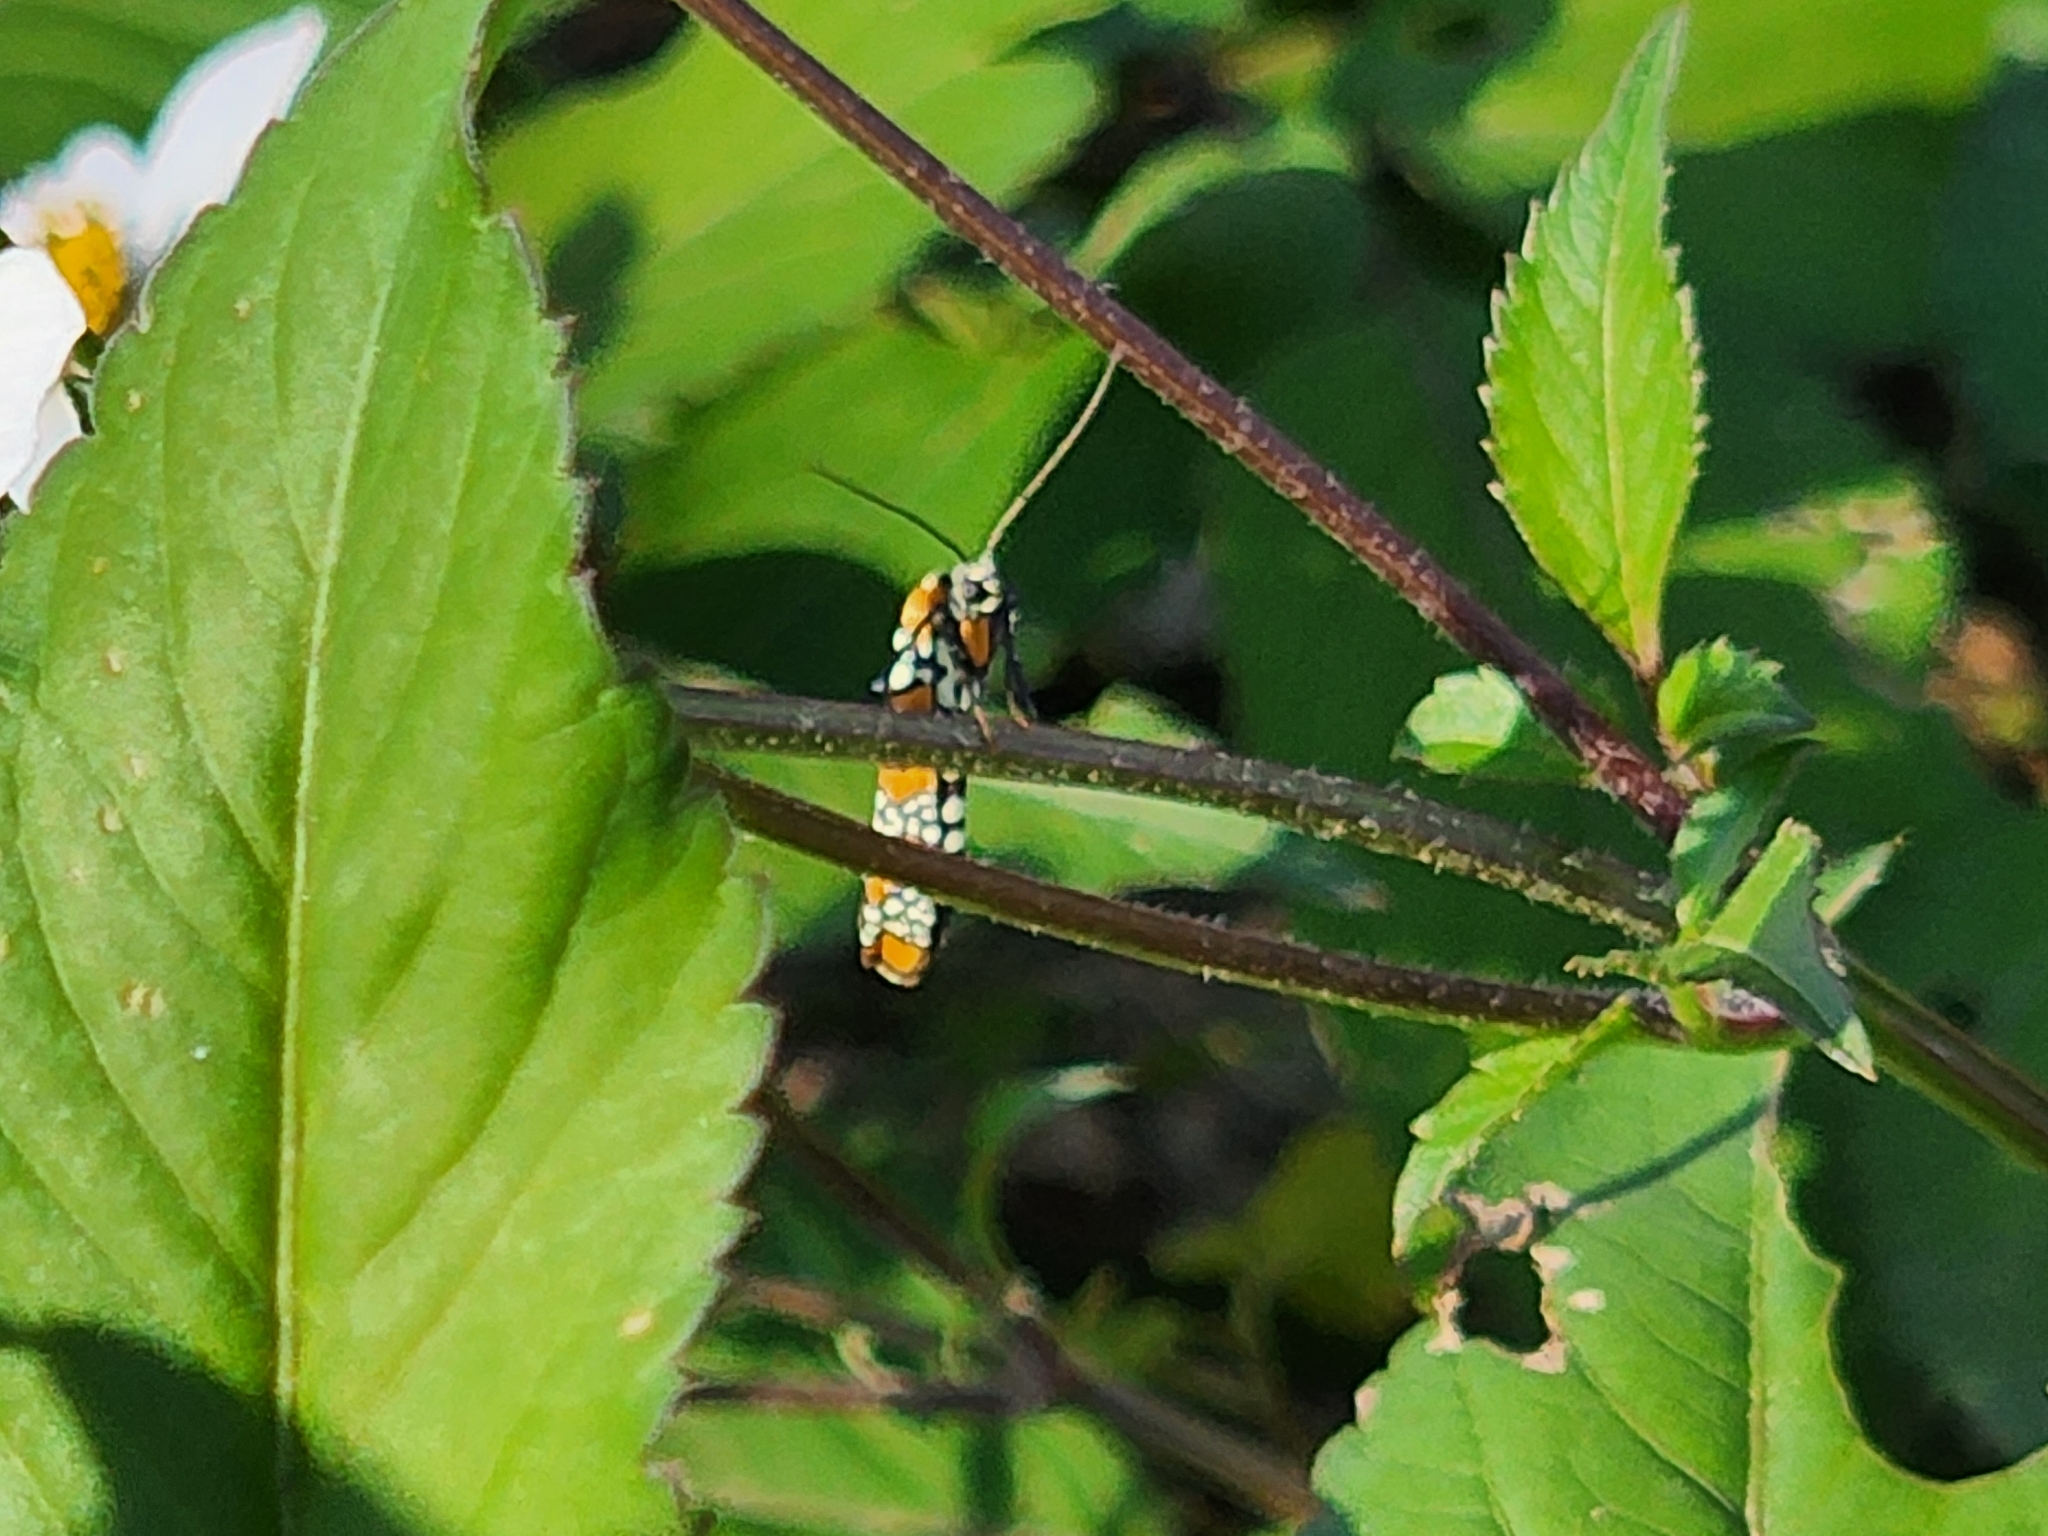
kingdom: Animalia
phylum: Arthropoda
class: Insecta
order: Lepidoptera
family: Attevidae
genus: Atteva
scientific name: Atteva punctella
